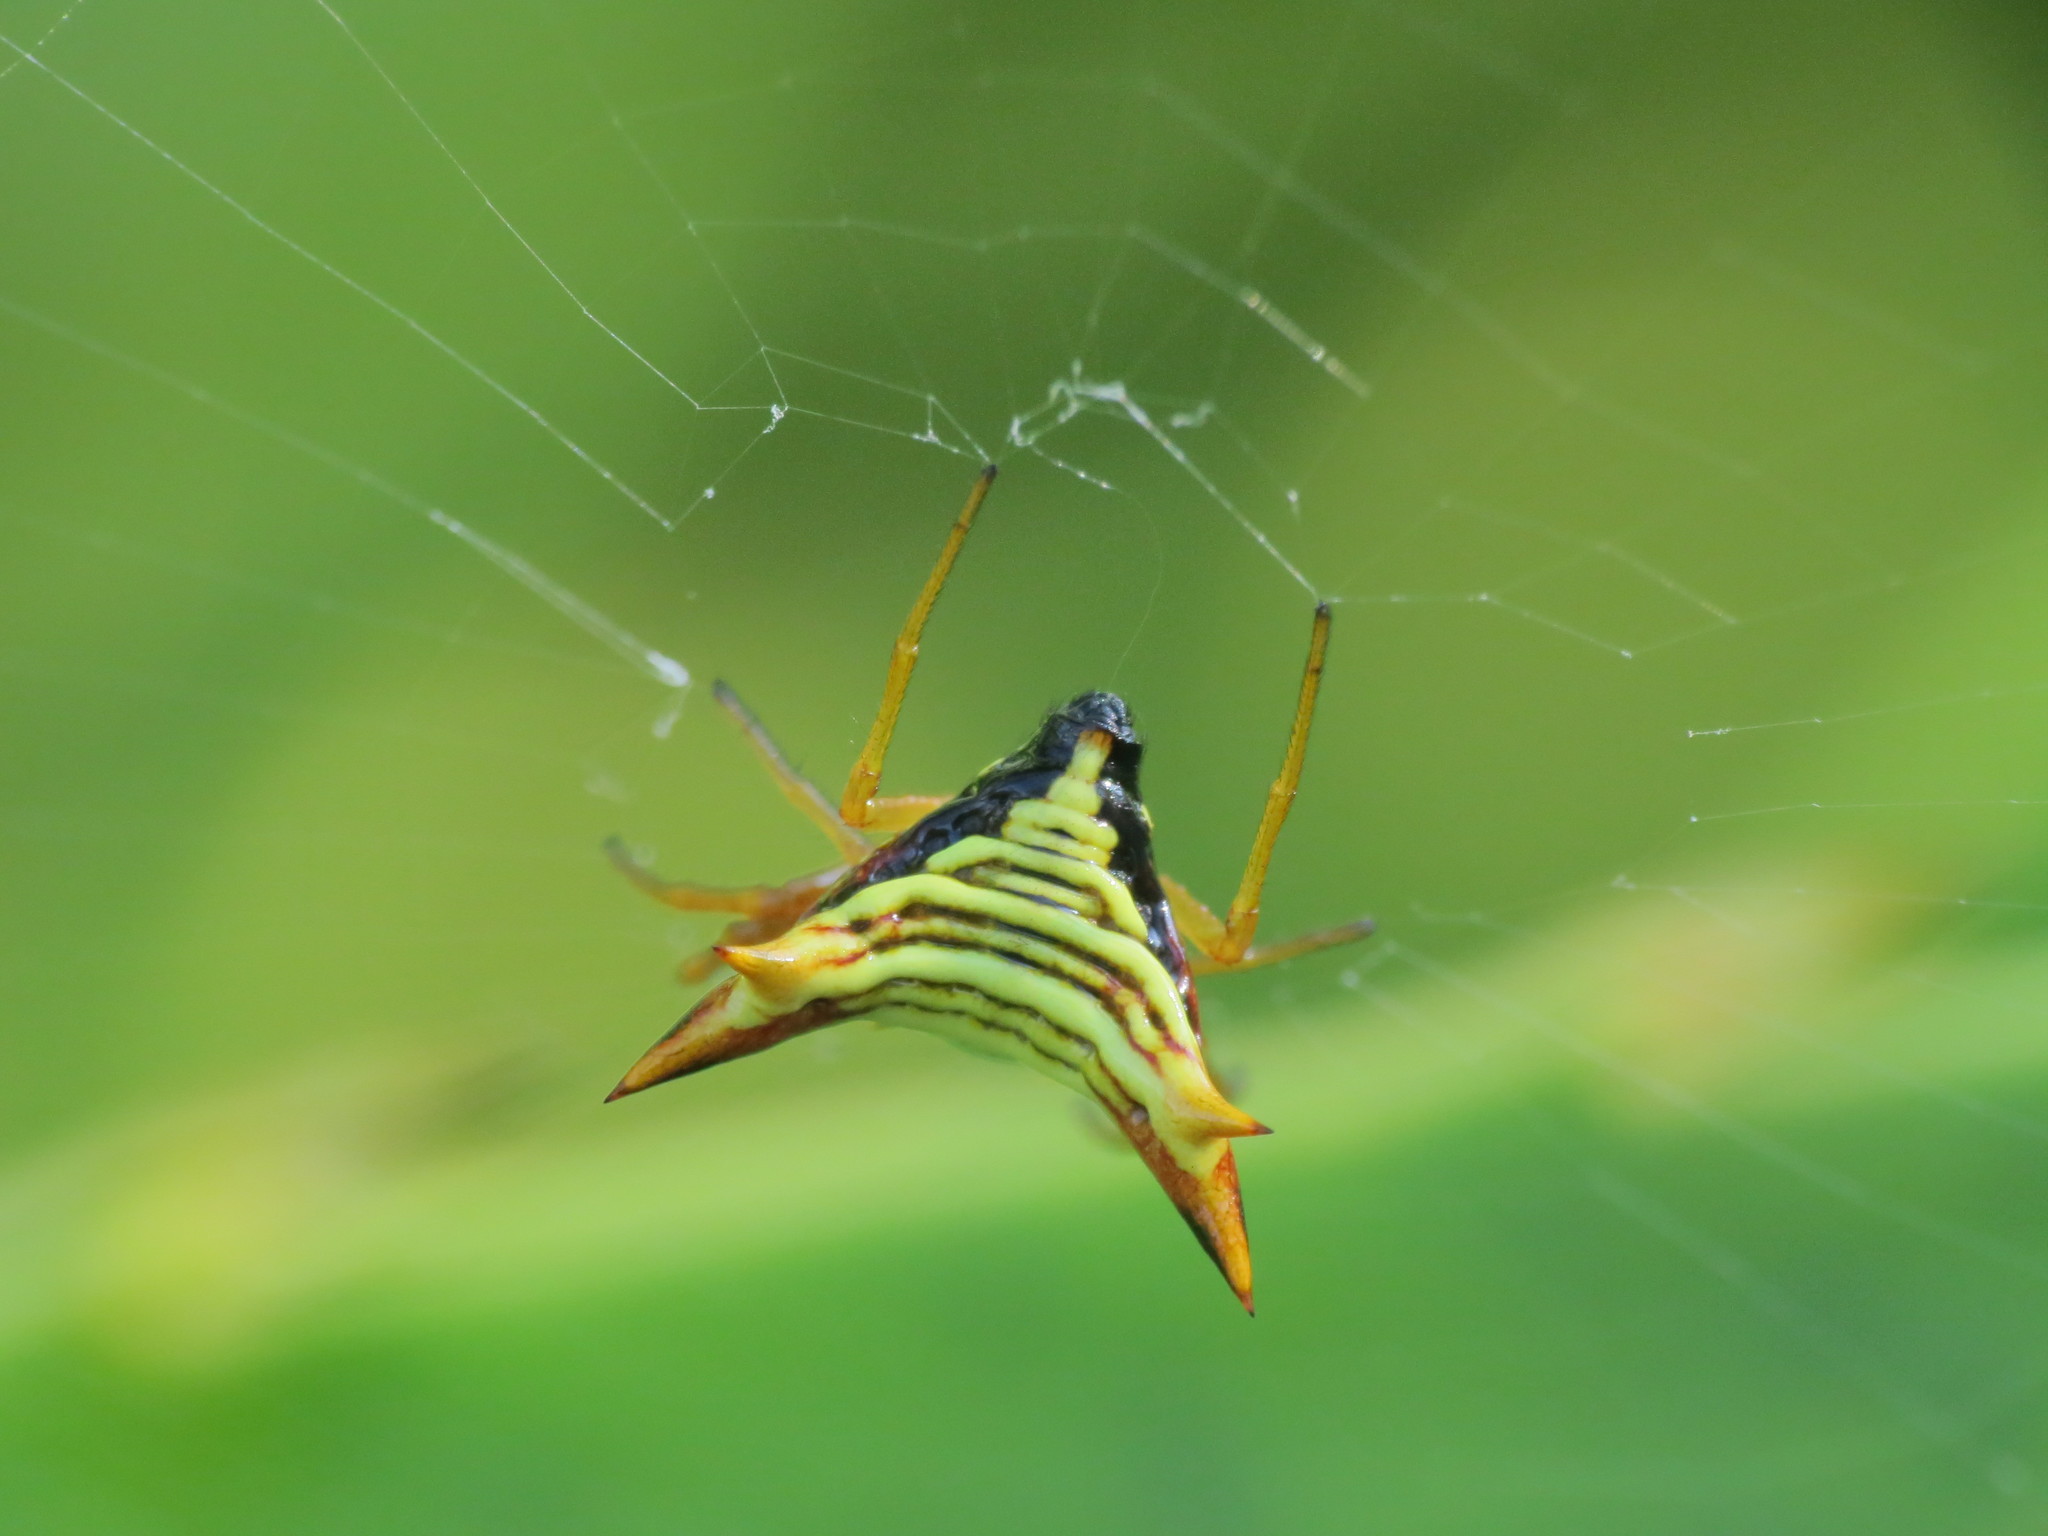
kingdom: Animalia
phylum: Arthropoda
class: Arachnida
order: Araneae
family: Araneidae
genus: Micrathena
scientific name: Micrathena furcata
